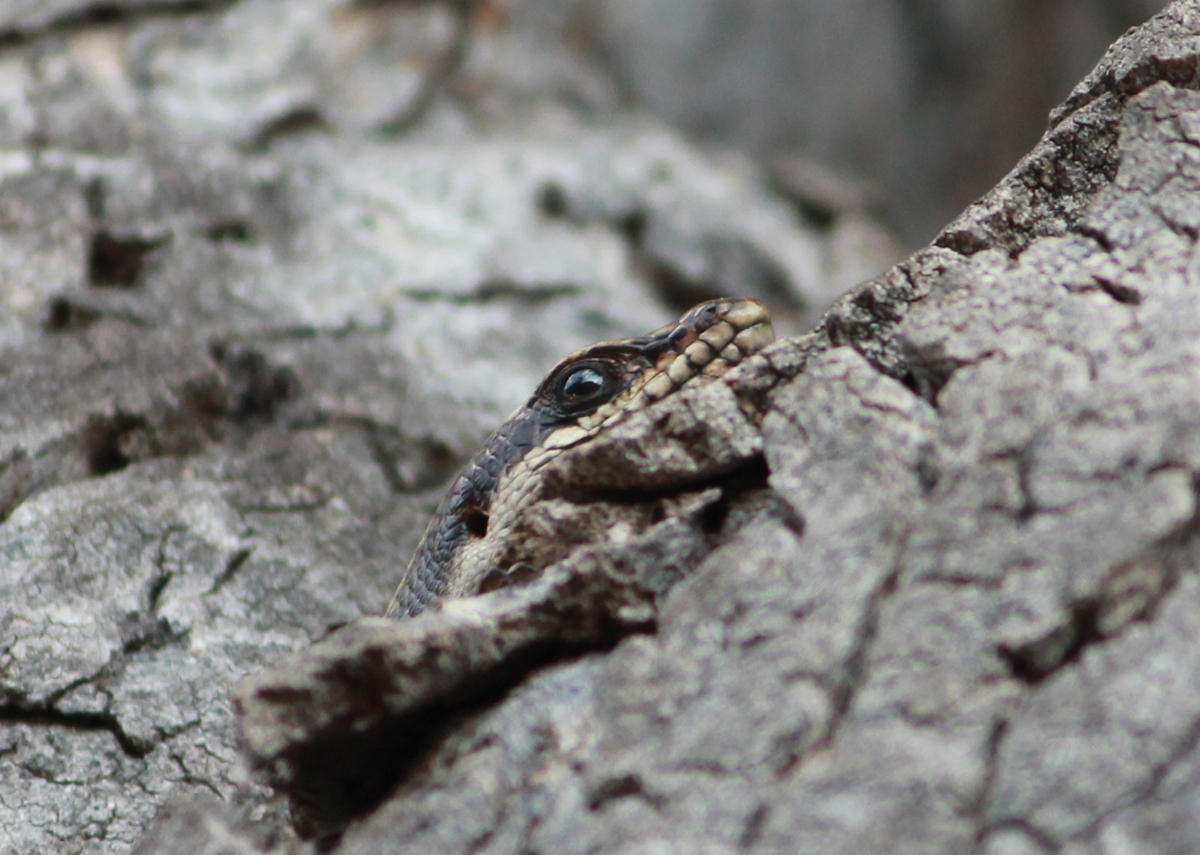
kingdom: Animalia
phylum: Chordata
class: Squamata
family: Scincidae
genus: Trachylepis
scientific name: Trachylepis striata
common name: African striped mabuya
